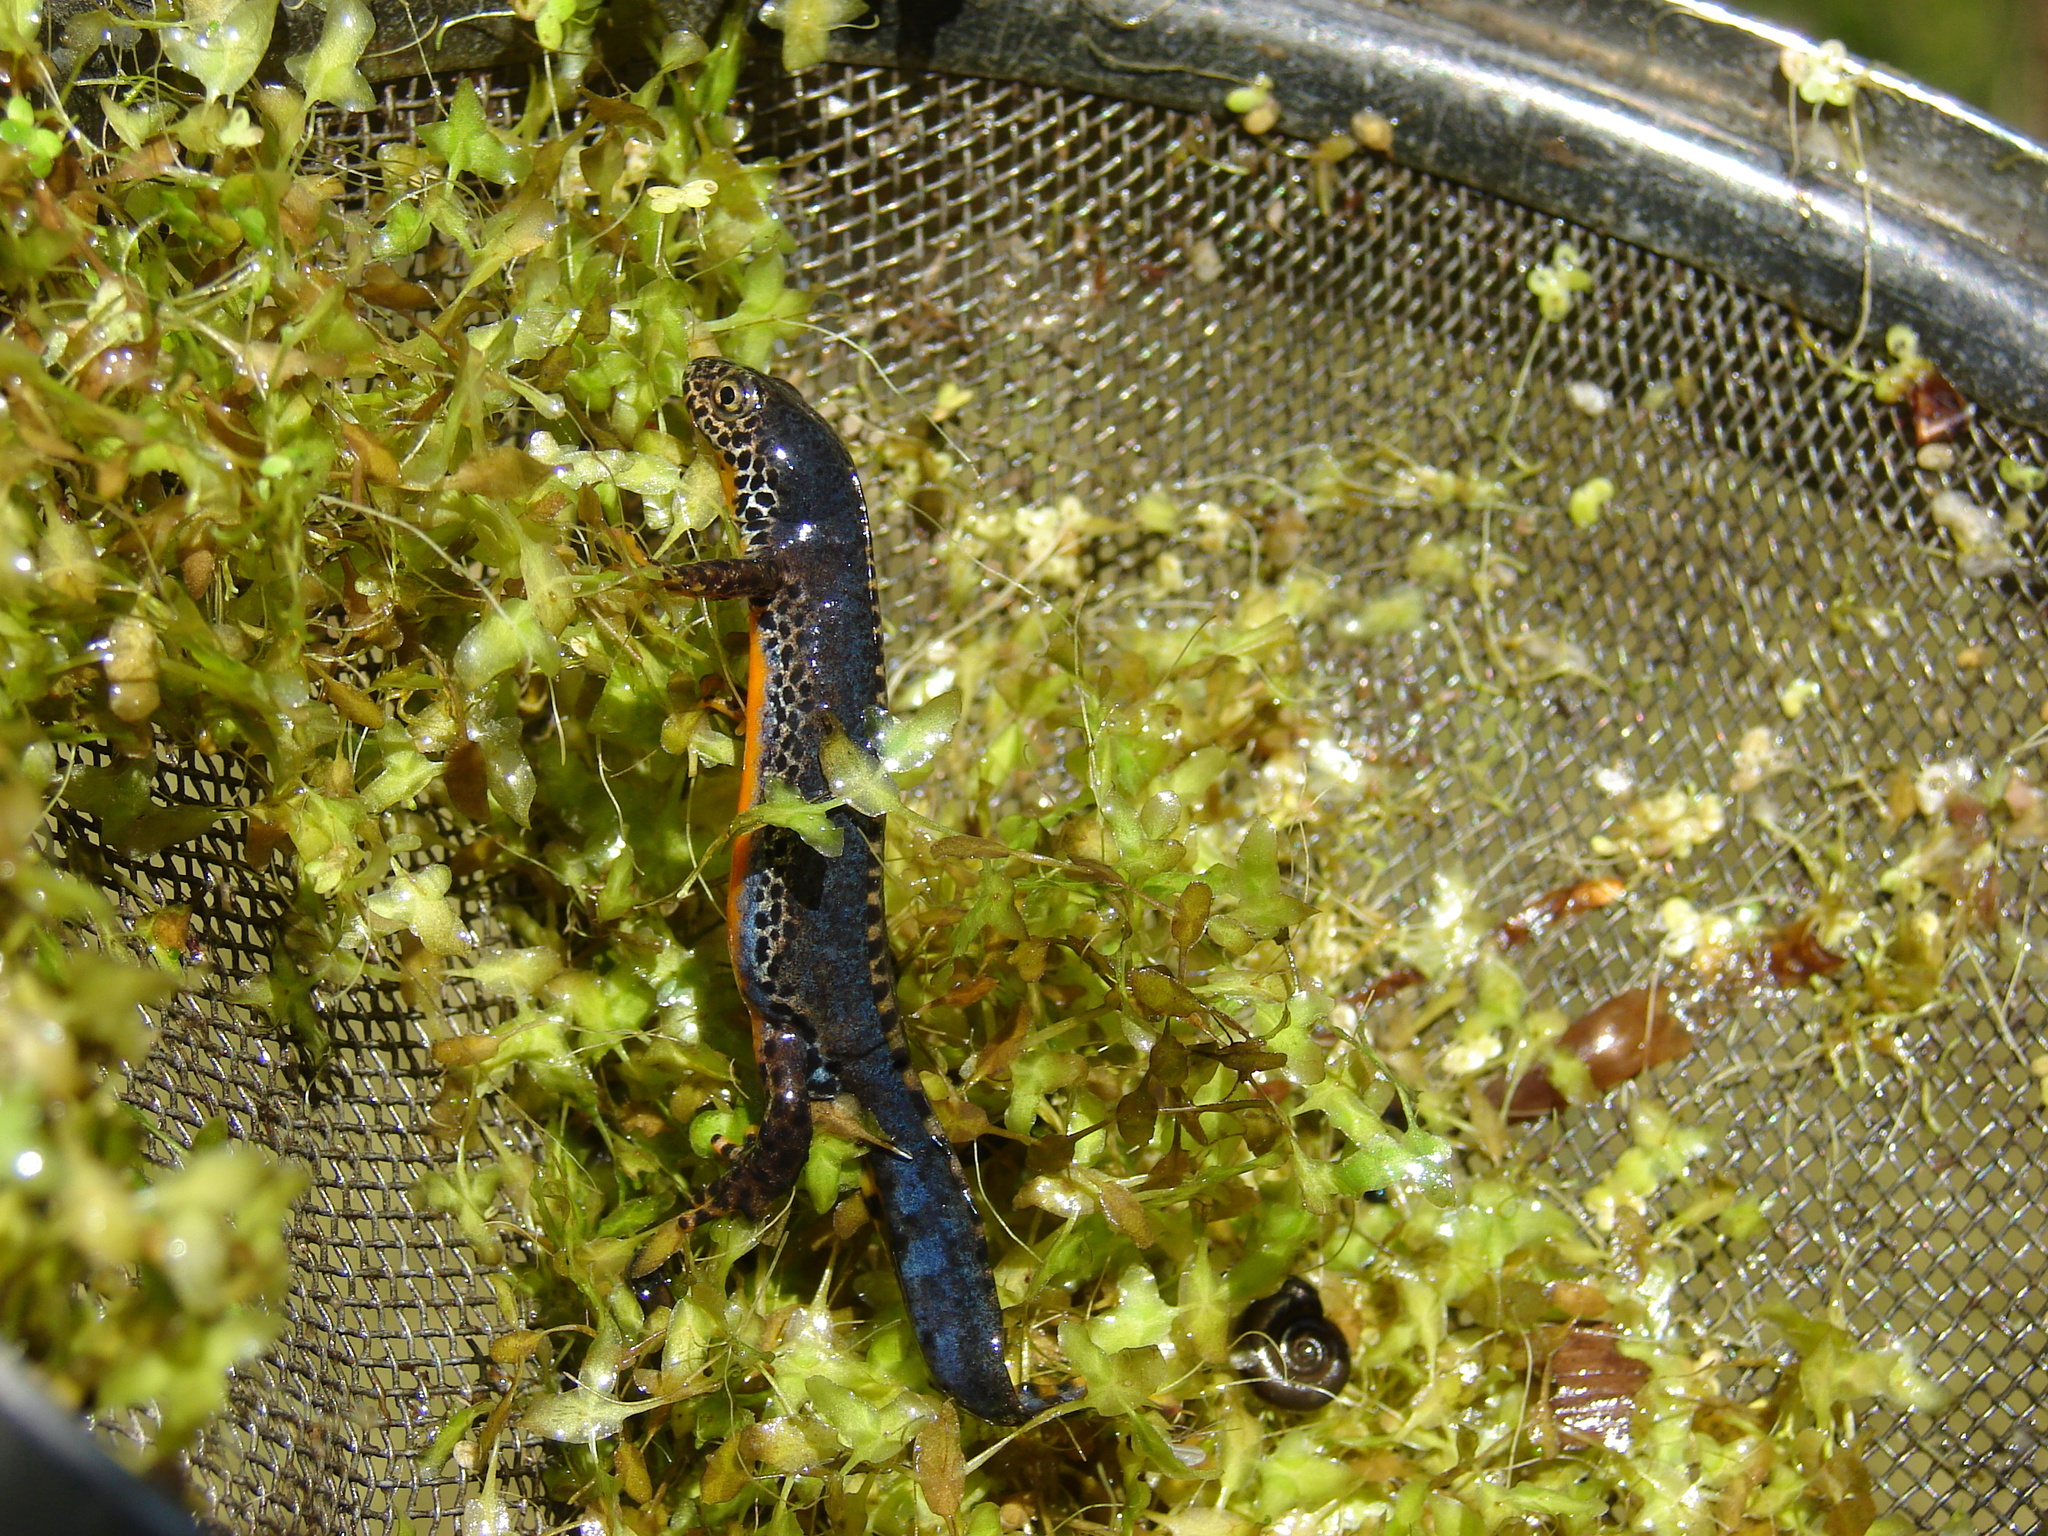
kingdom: Animalia
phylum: Chordata
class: Amphibia
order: Caudata
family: Salamandridae
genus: Ichthyosaura
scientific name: Ichthyosaura alpestris
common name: Alpine newt
